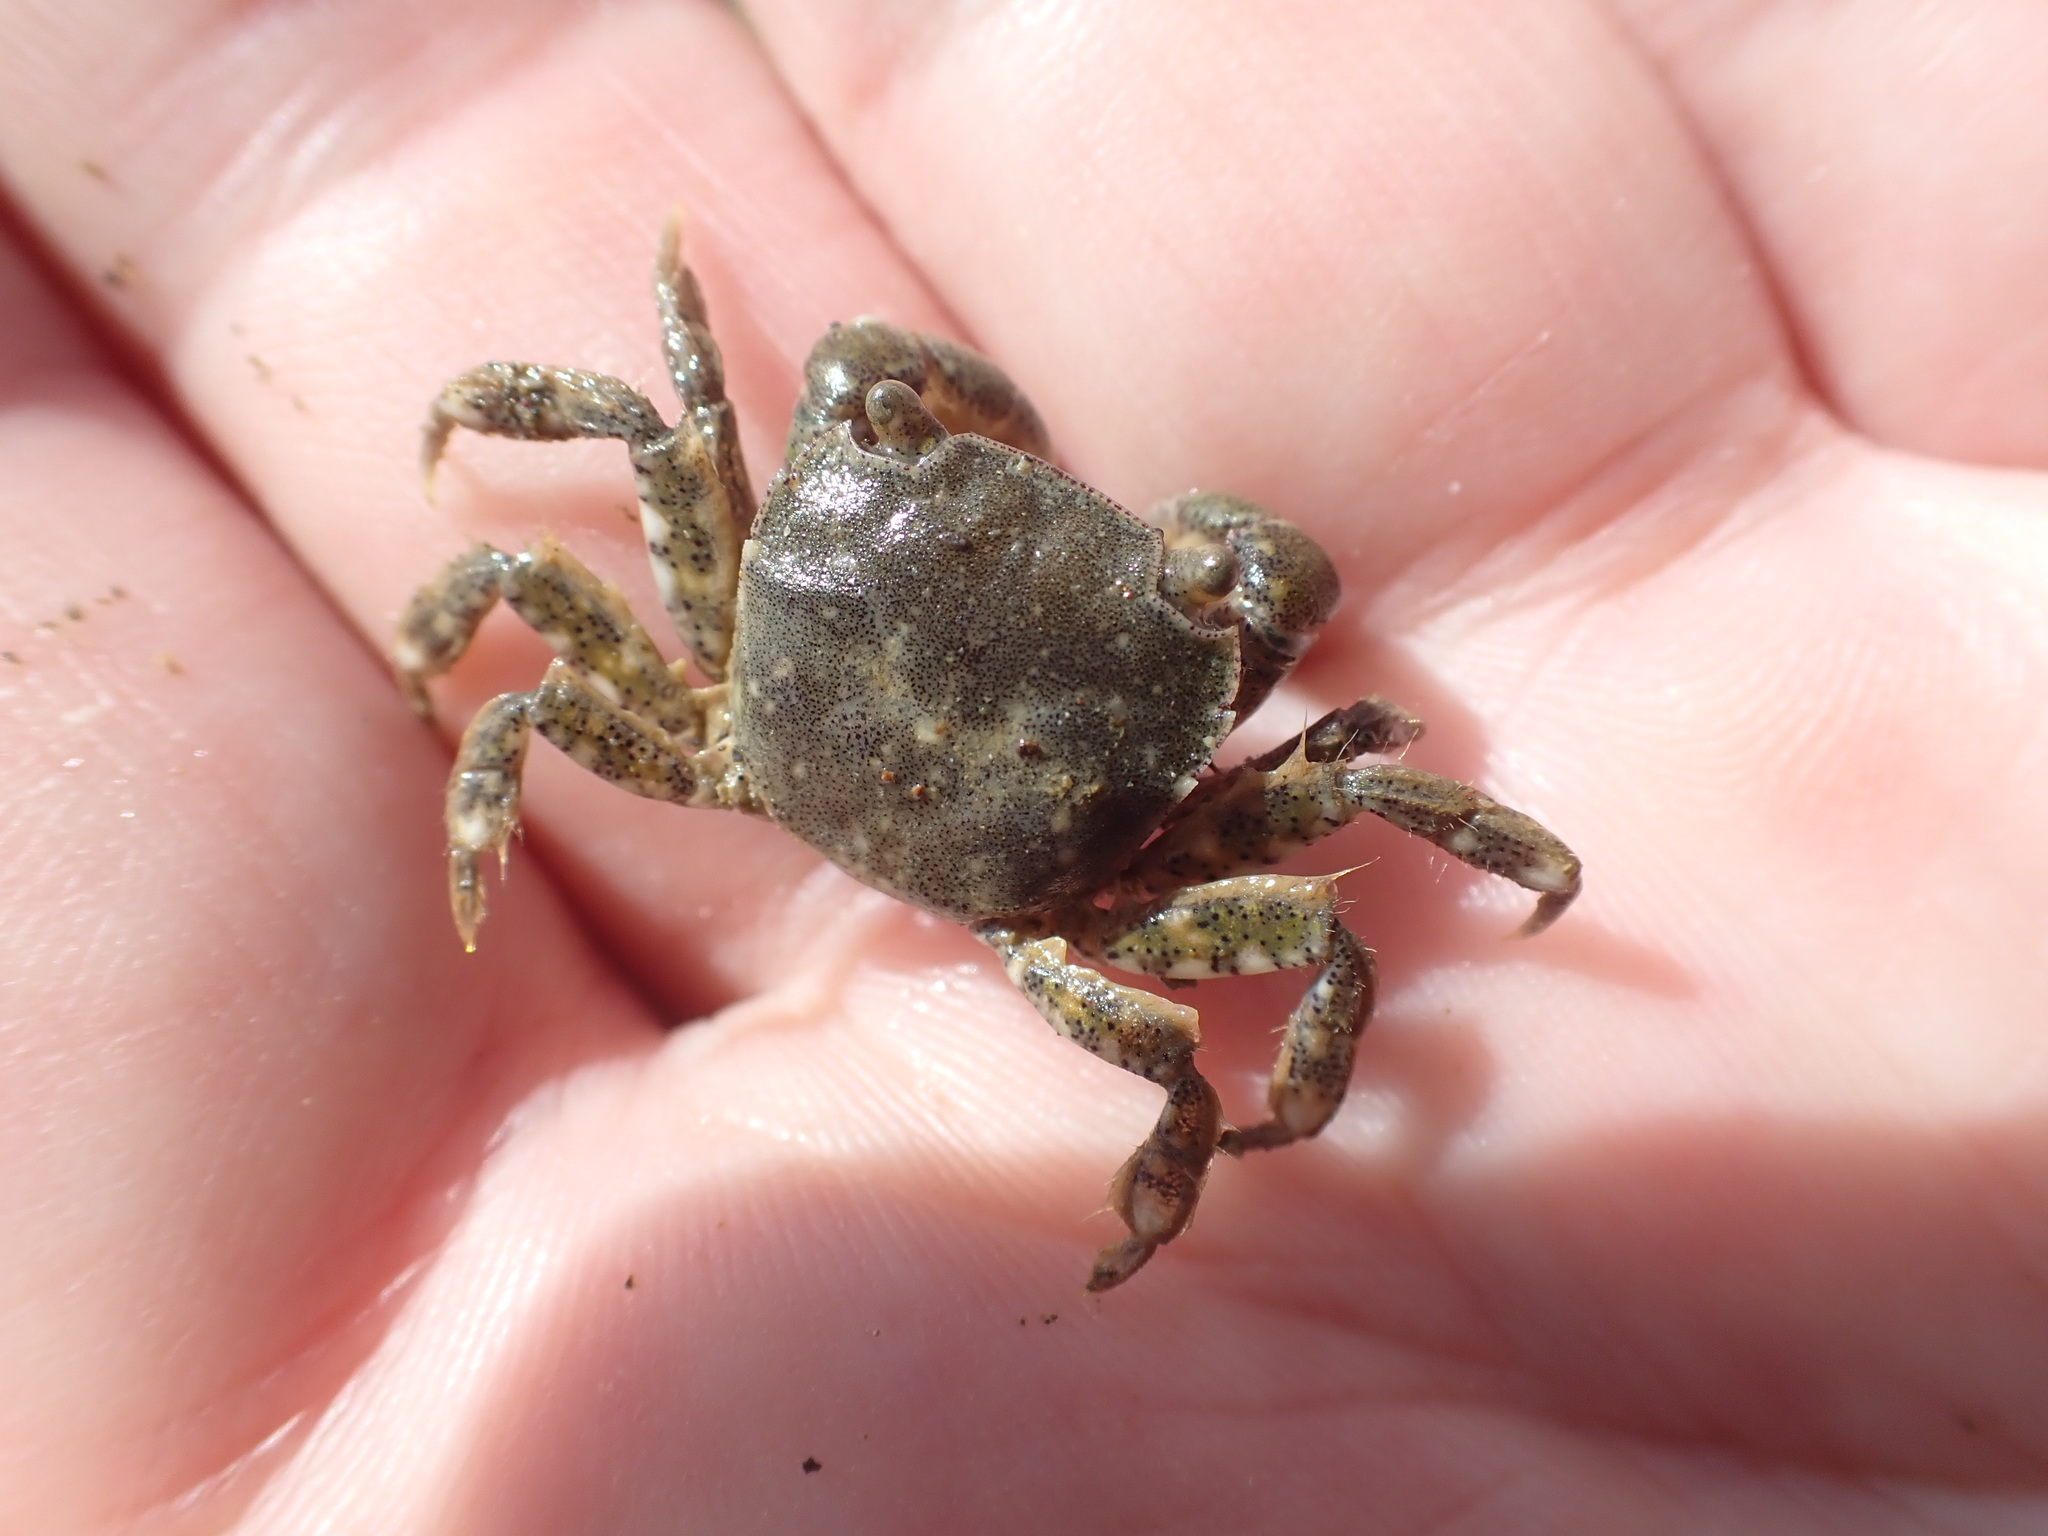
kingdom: Animalia
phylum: Arthropoda
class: Malacostraca
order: Decapoda
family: Varunidae
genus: Hemigrapsus
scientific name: Hemigrapsus crenulatus
